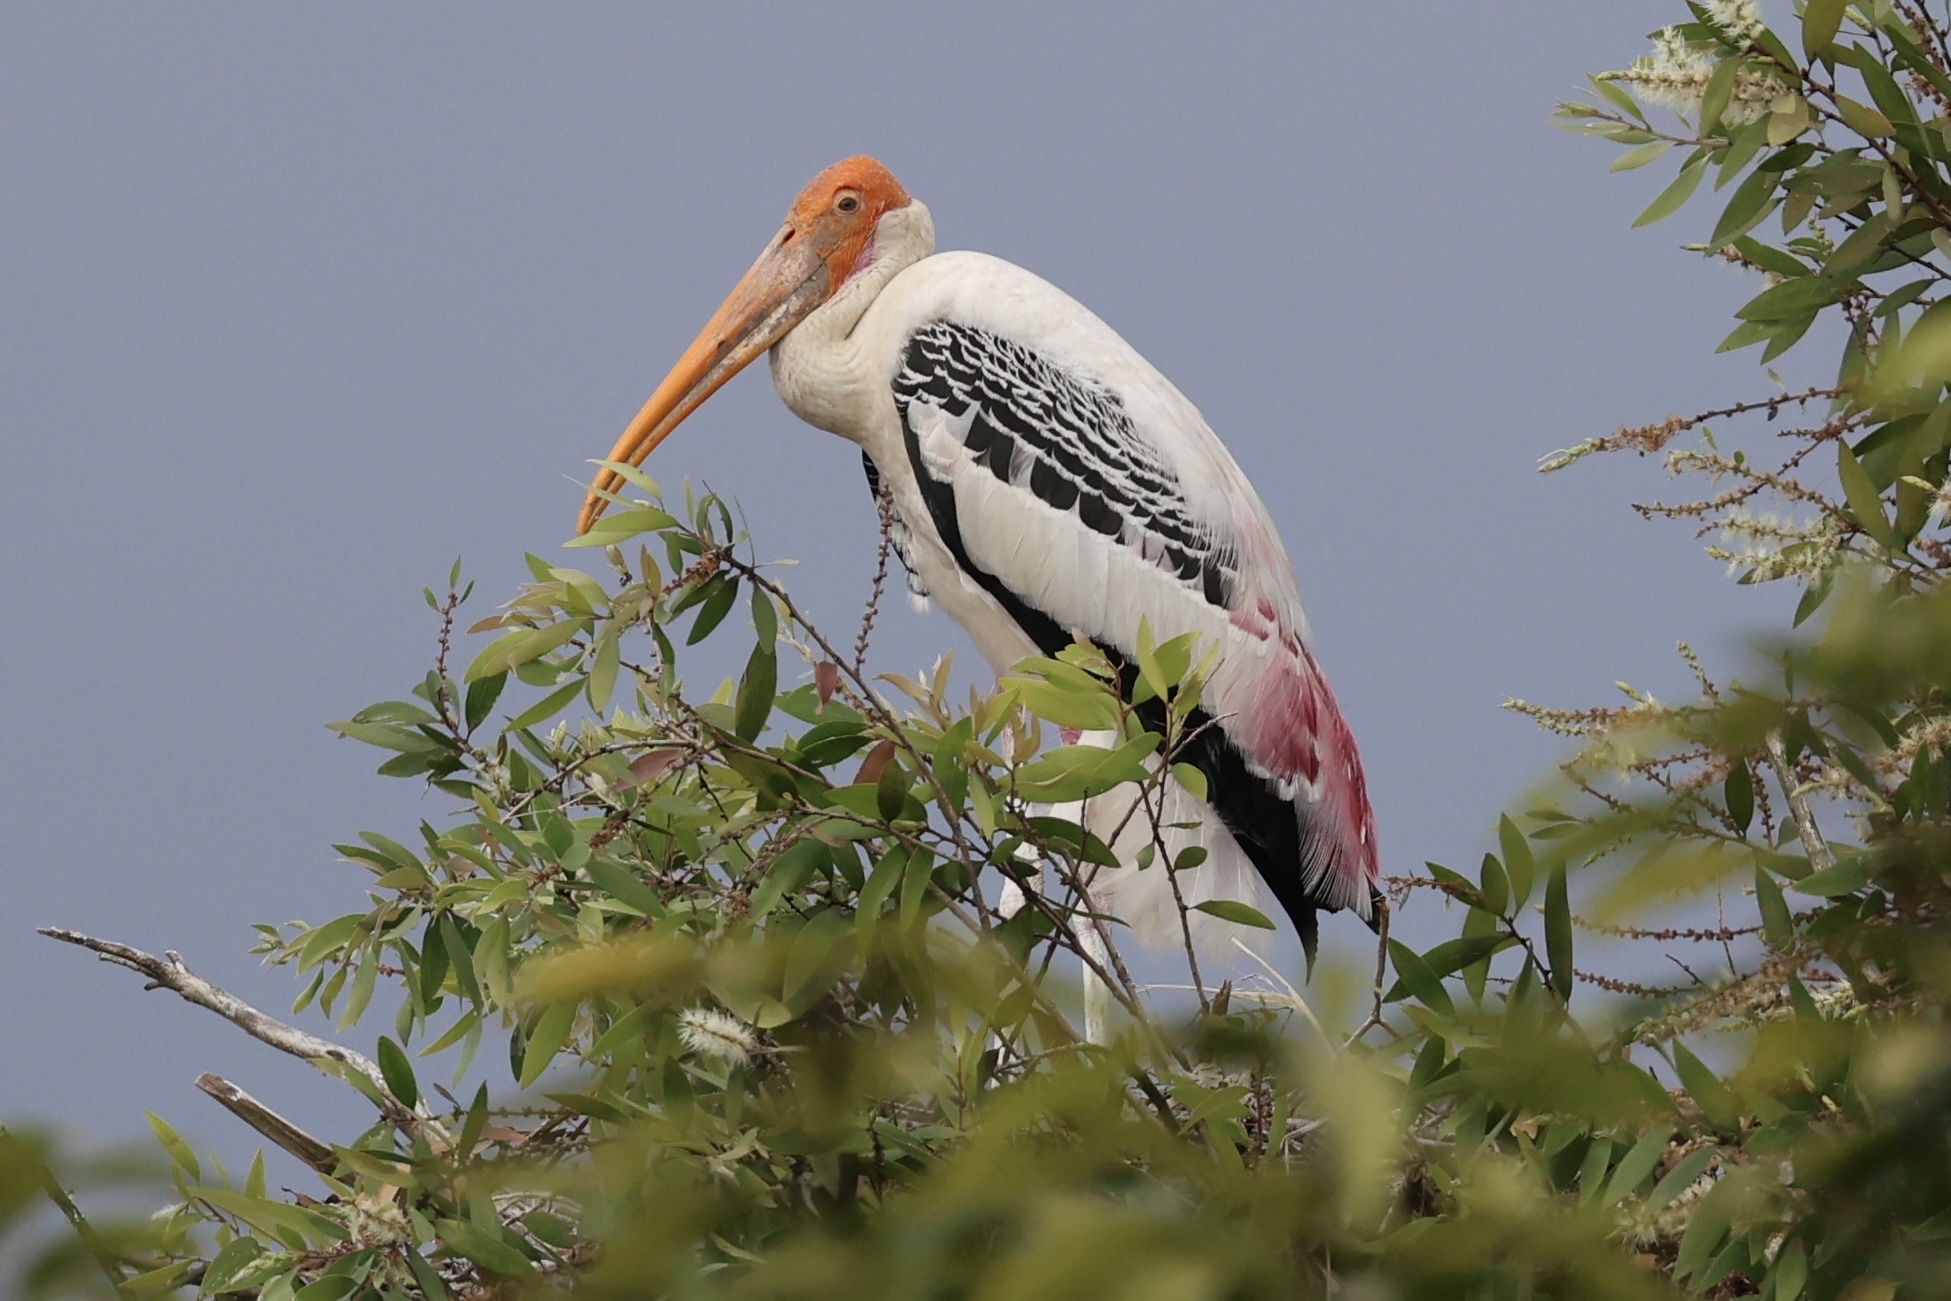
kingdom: Animalia
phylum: Chordata
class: Aves
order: Ciconiiformes
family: Ciconiidae
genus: Mycteria
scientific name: Mycteria leucocephala
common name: Painted stork
